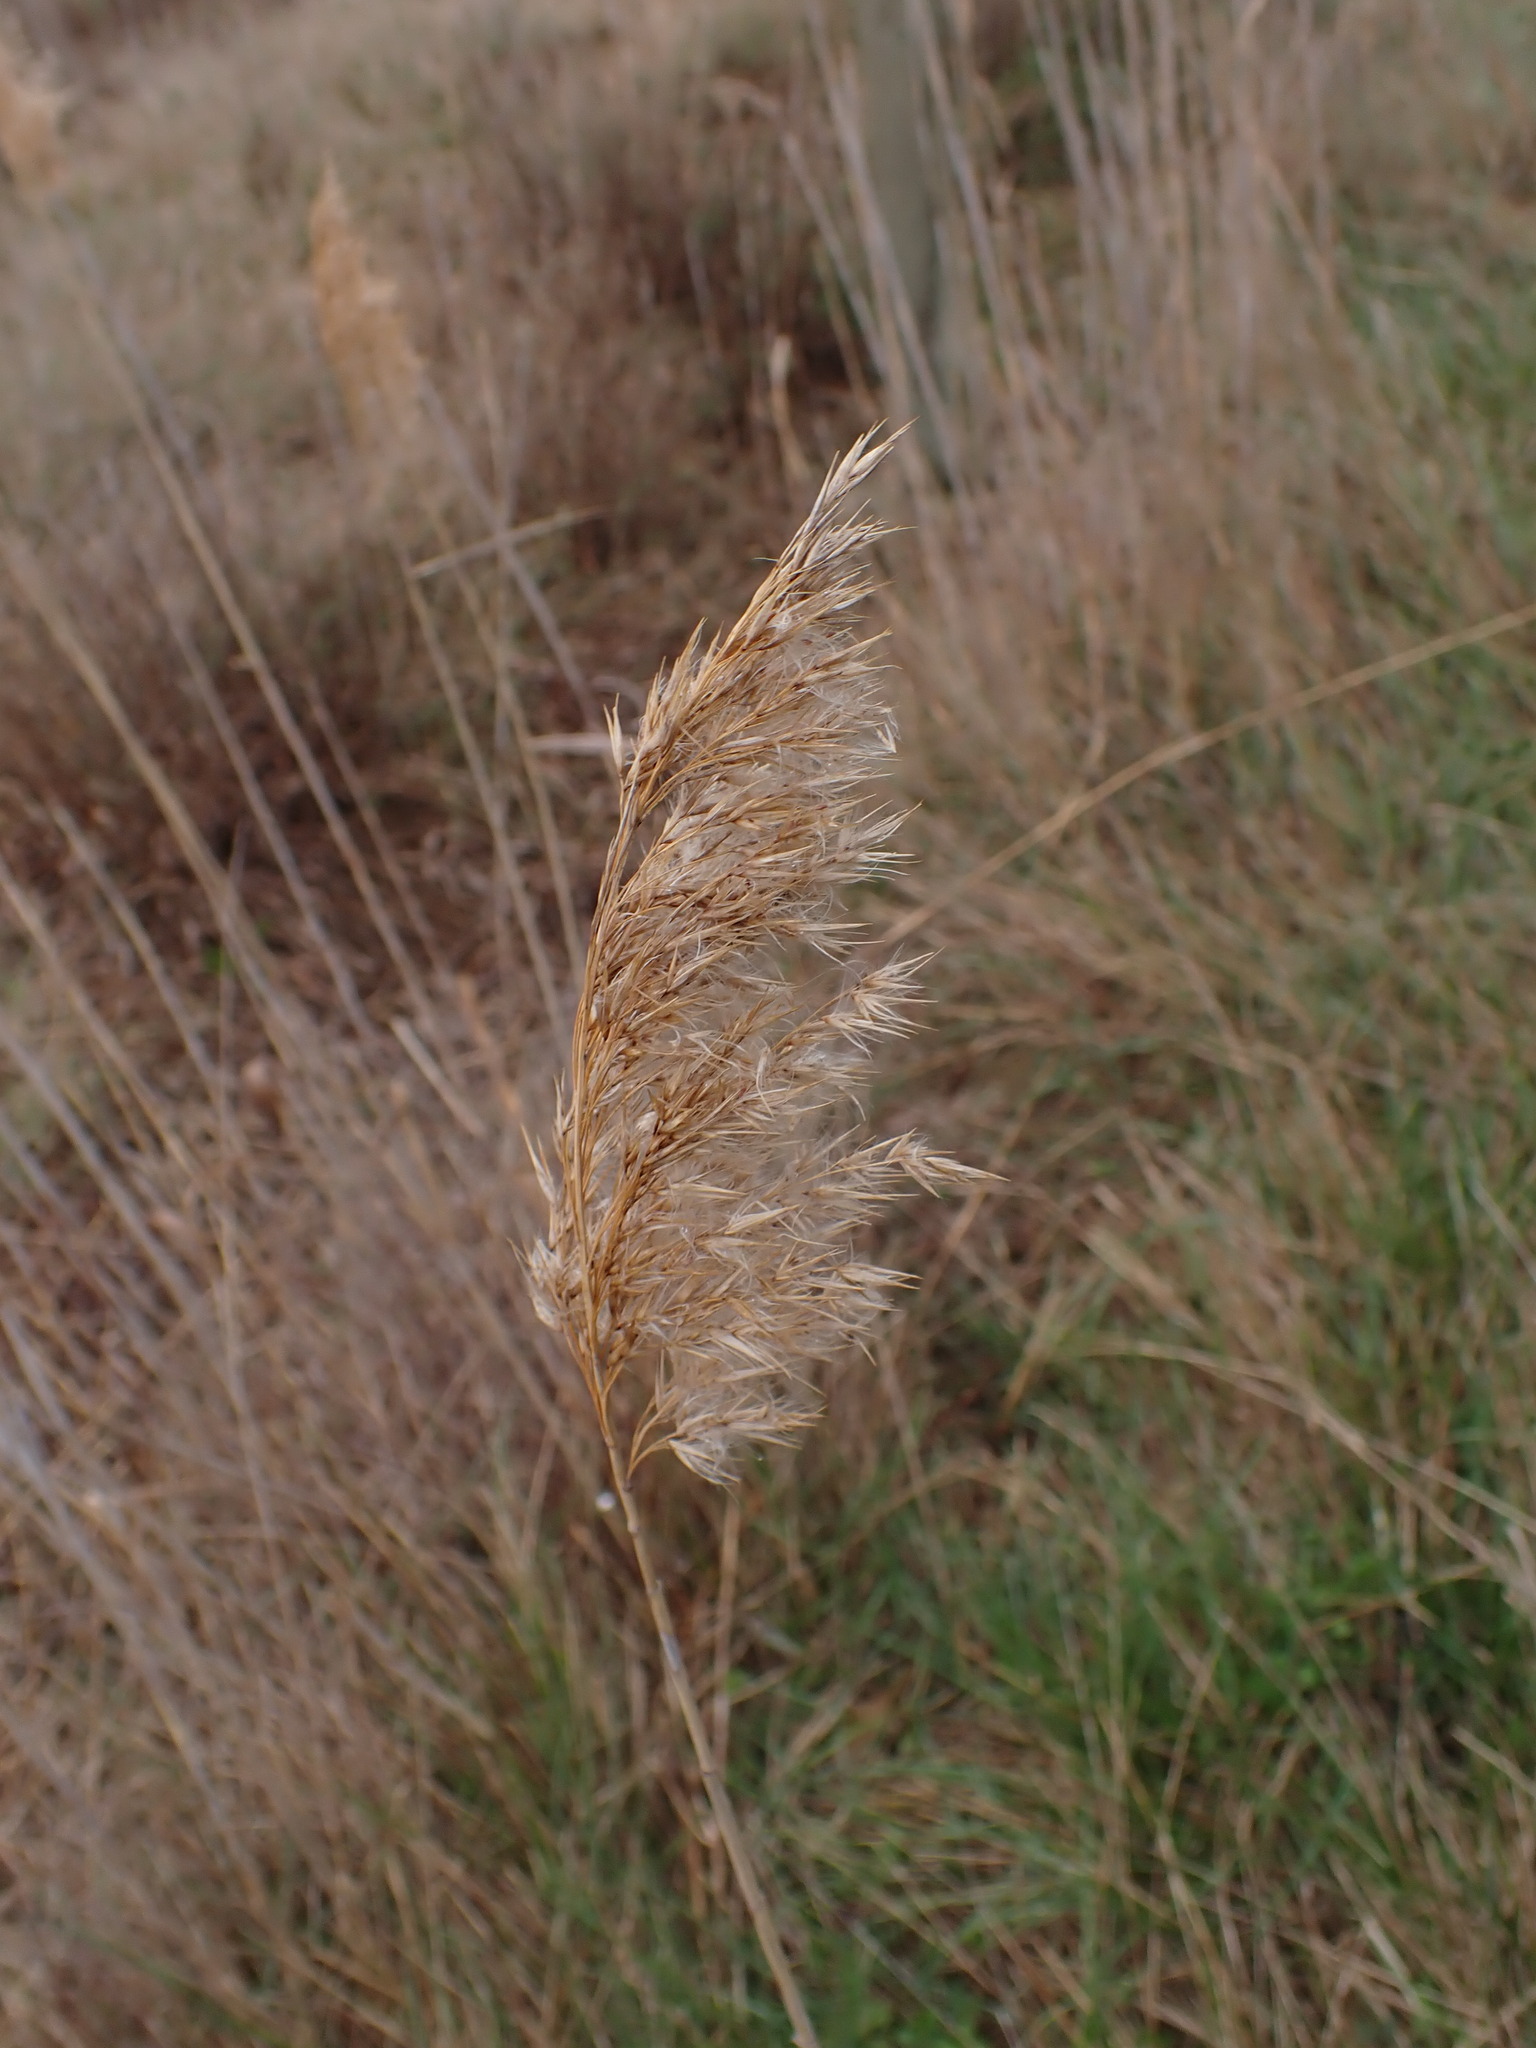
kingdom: Plantae
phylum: Tracheophyta
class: Liliopsida
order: Poales
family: Poaceae
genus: Phragmites
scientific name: Phragmites australis
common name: Common reed
